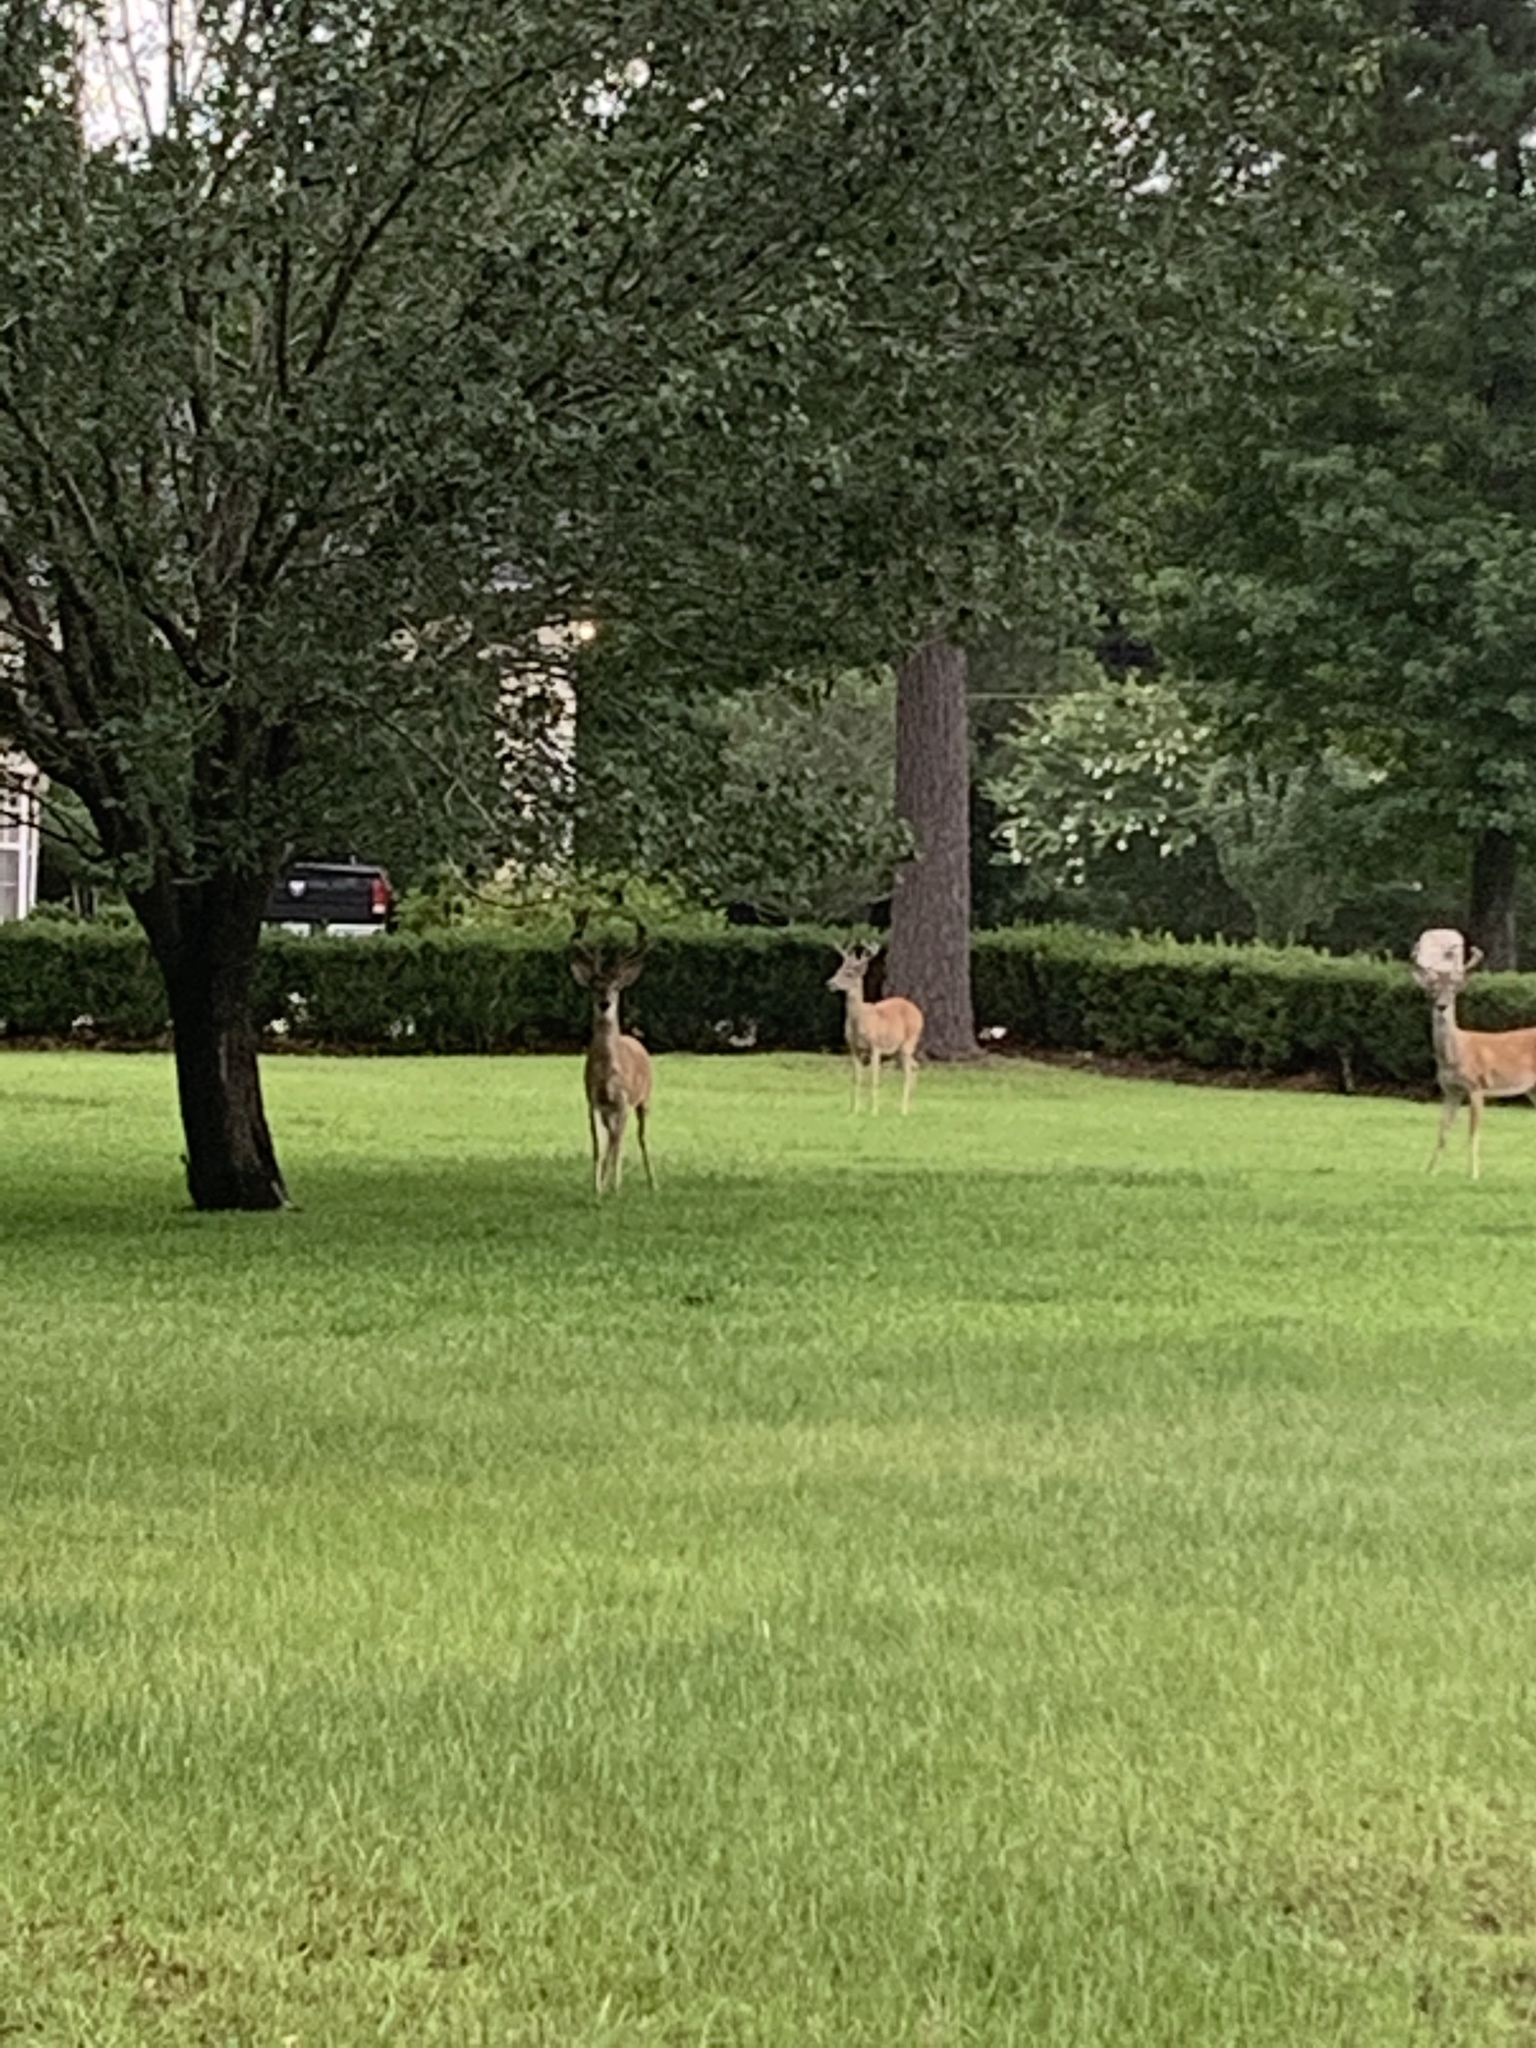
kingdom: Animalia
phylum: Chordata
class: Mammalia
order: Artiodactyla
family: Cervidae
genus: Odocoileus
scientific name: Odocoileus virginianus
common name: White-tailed deer
